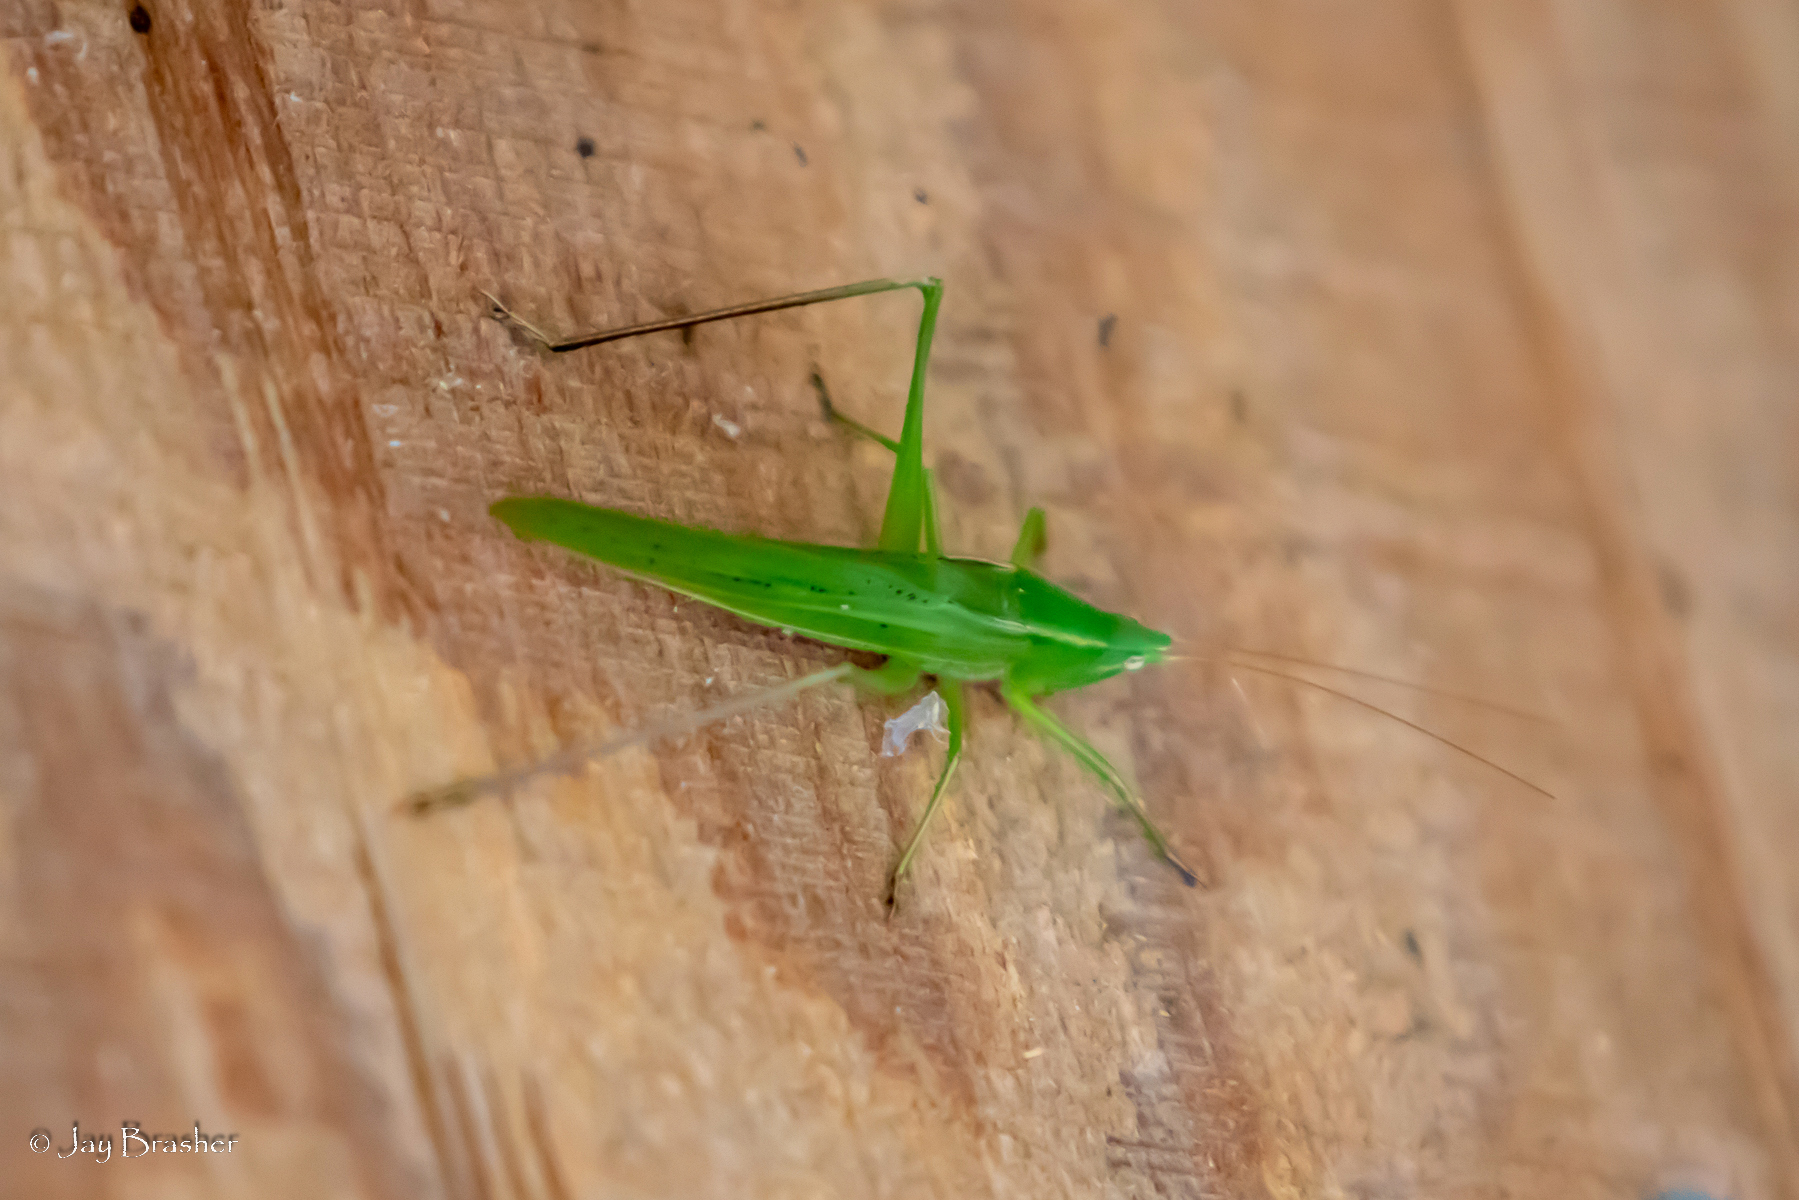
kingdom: Animalia
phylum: Arthropoda
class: Insecta
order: Orthoptera
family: Tettigoniidae
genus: Neoconocephalus
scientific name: Neoconocephalus retusus
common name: Round-tipped conehead
